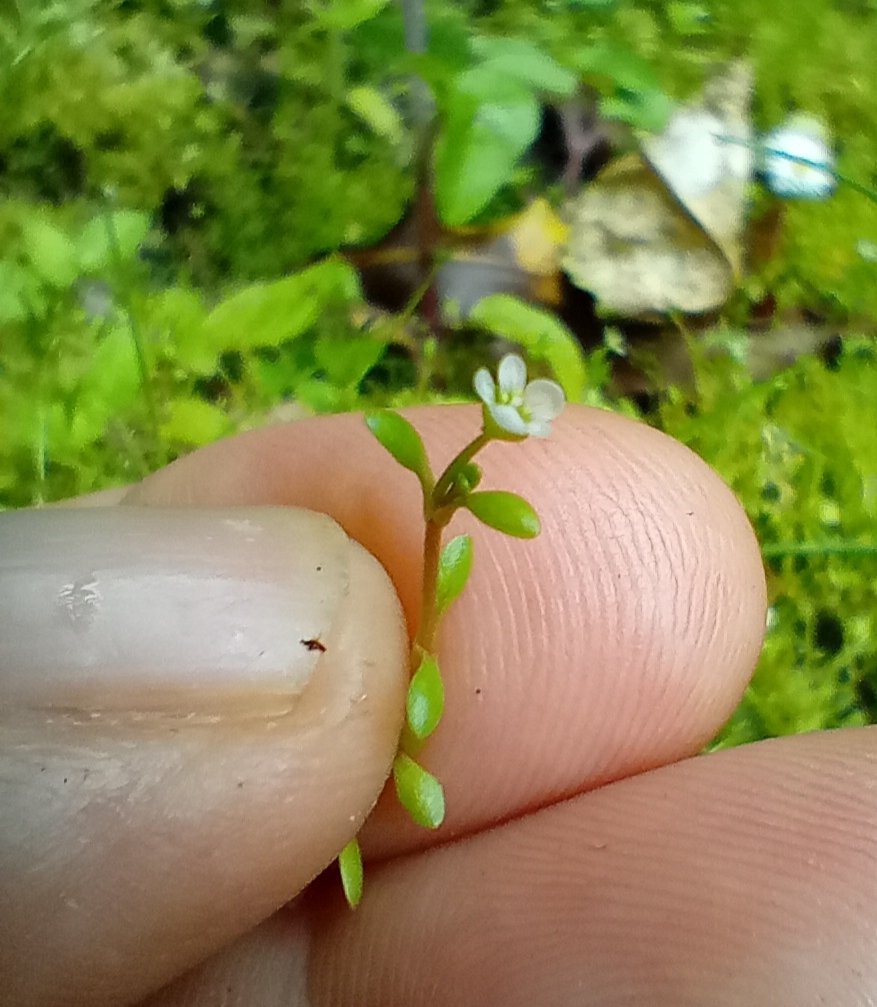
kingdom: Plantae
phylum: Tracheophyta
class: Magnoliopsida
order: Caryophyllales
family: Montiaceae
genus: Montia
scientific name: Montia fontana
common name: Blinks
